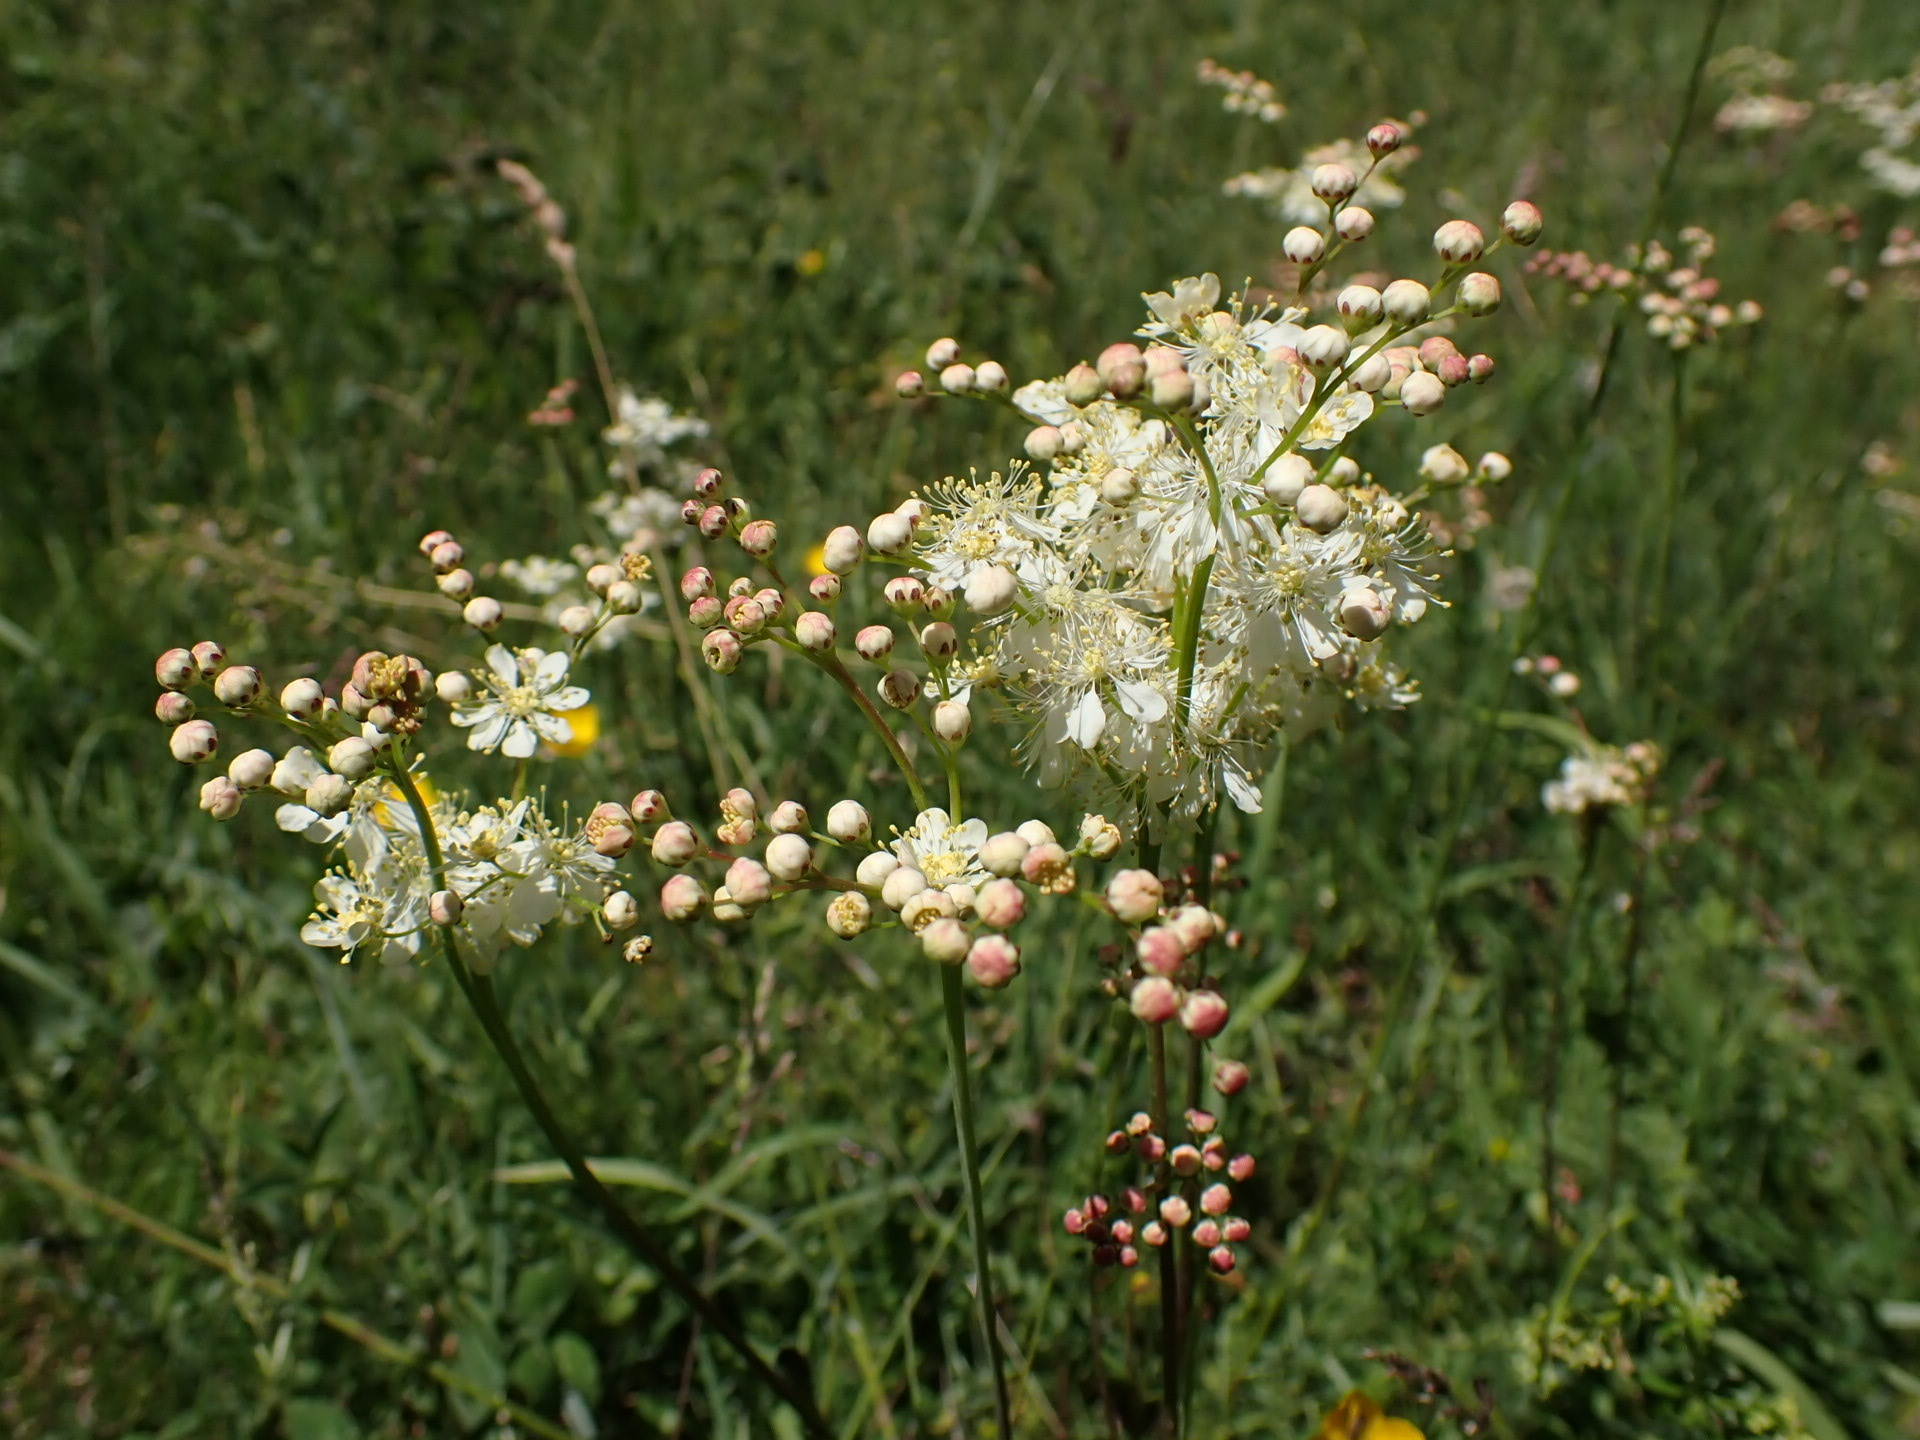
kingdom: Plantae
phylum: Tracheophyta
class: Magnoliopsida
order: Rosales
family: Rosaceae
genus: Filipendula
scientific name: Filipendula vulgaris
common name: Dropwort
